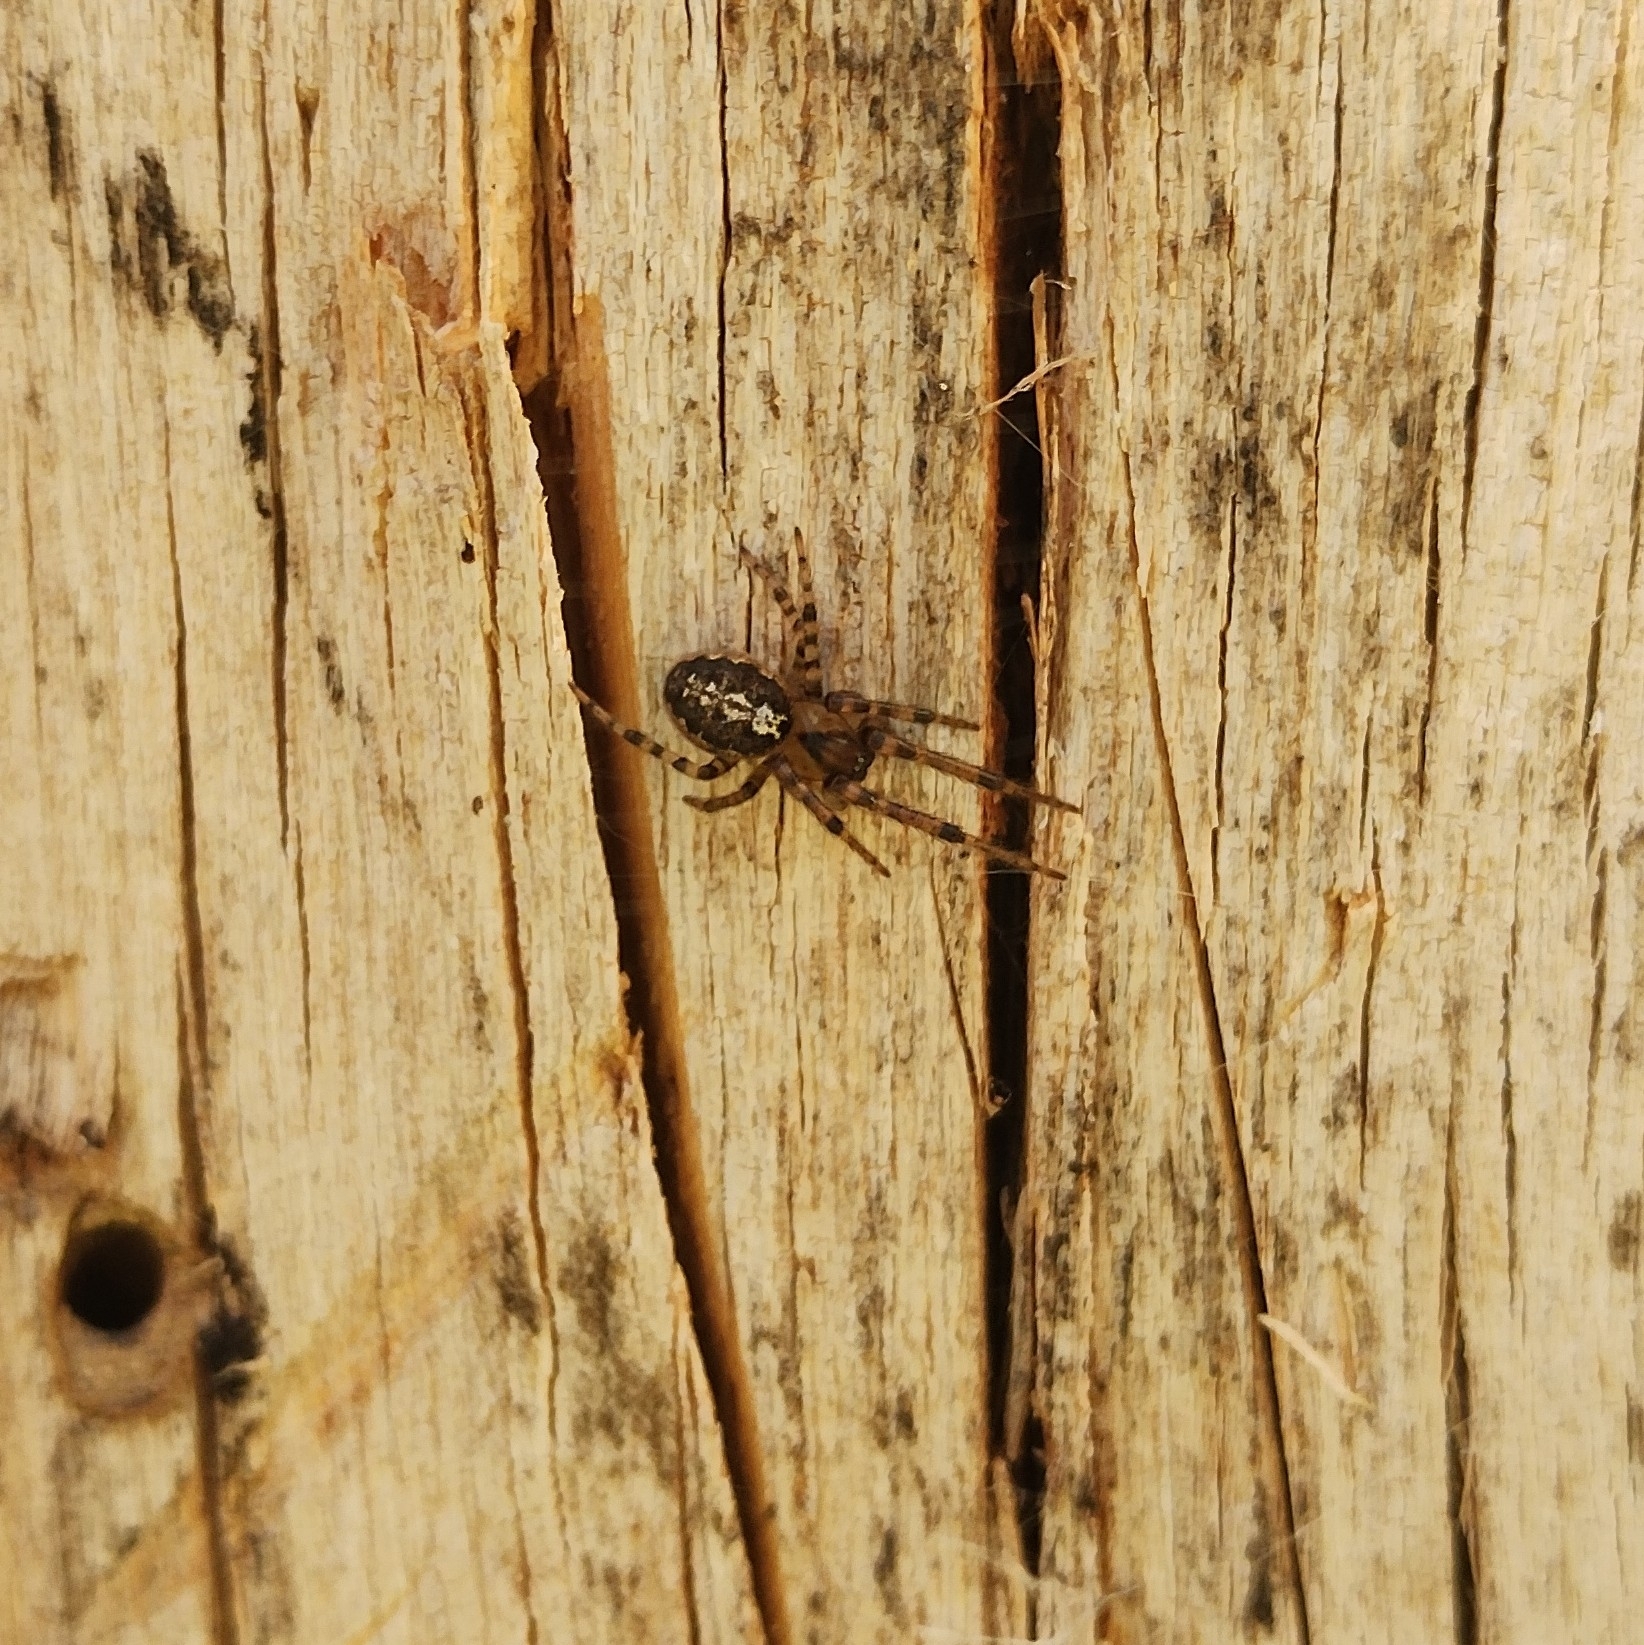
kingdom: Animalia
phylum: Arthropoda
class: Arachnida
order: Araneae
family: Araneidae
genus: Leviellus
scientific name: Leviellus thorelli
